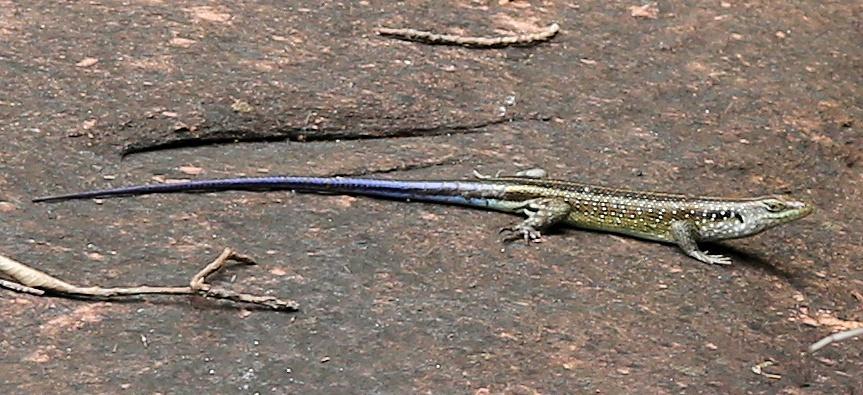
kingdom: Animalia
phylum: Chordata
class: Squamata
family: Scincidae
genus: Trachylepis
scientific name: Trachylepis margaritifera
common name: Rainbow skink
